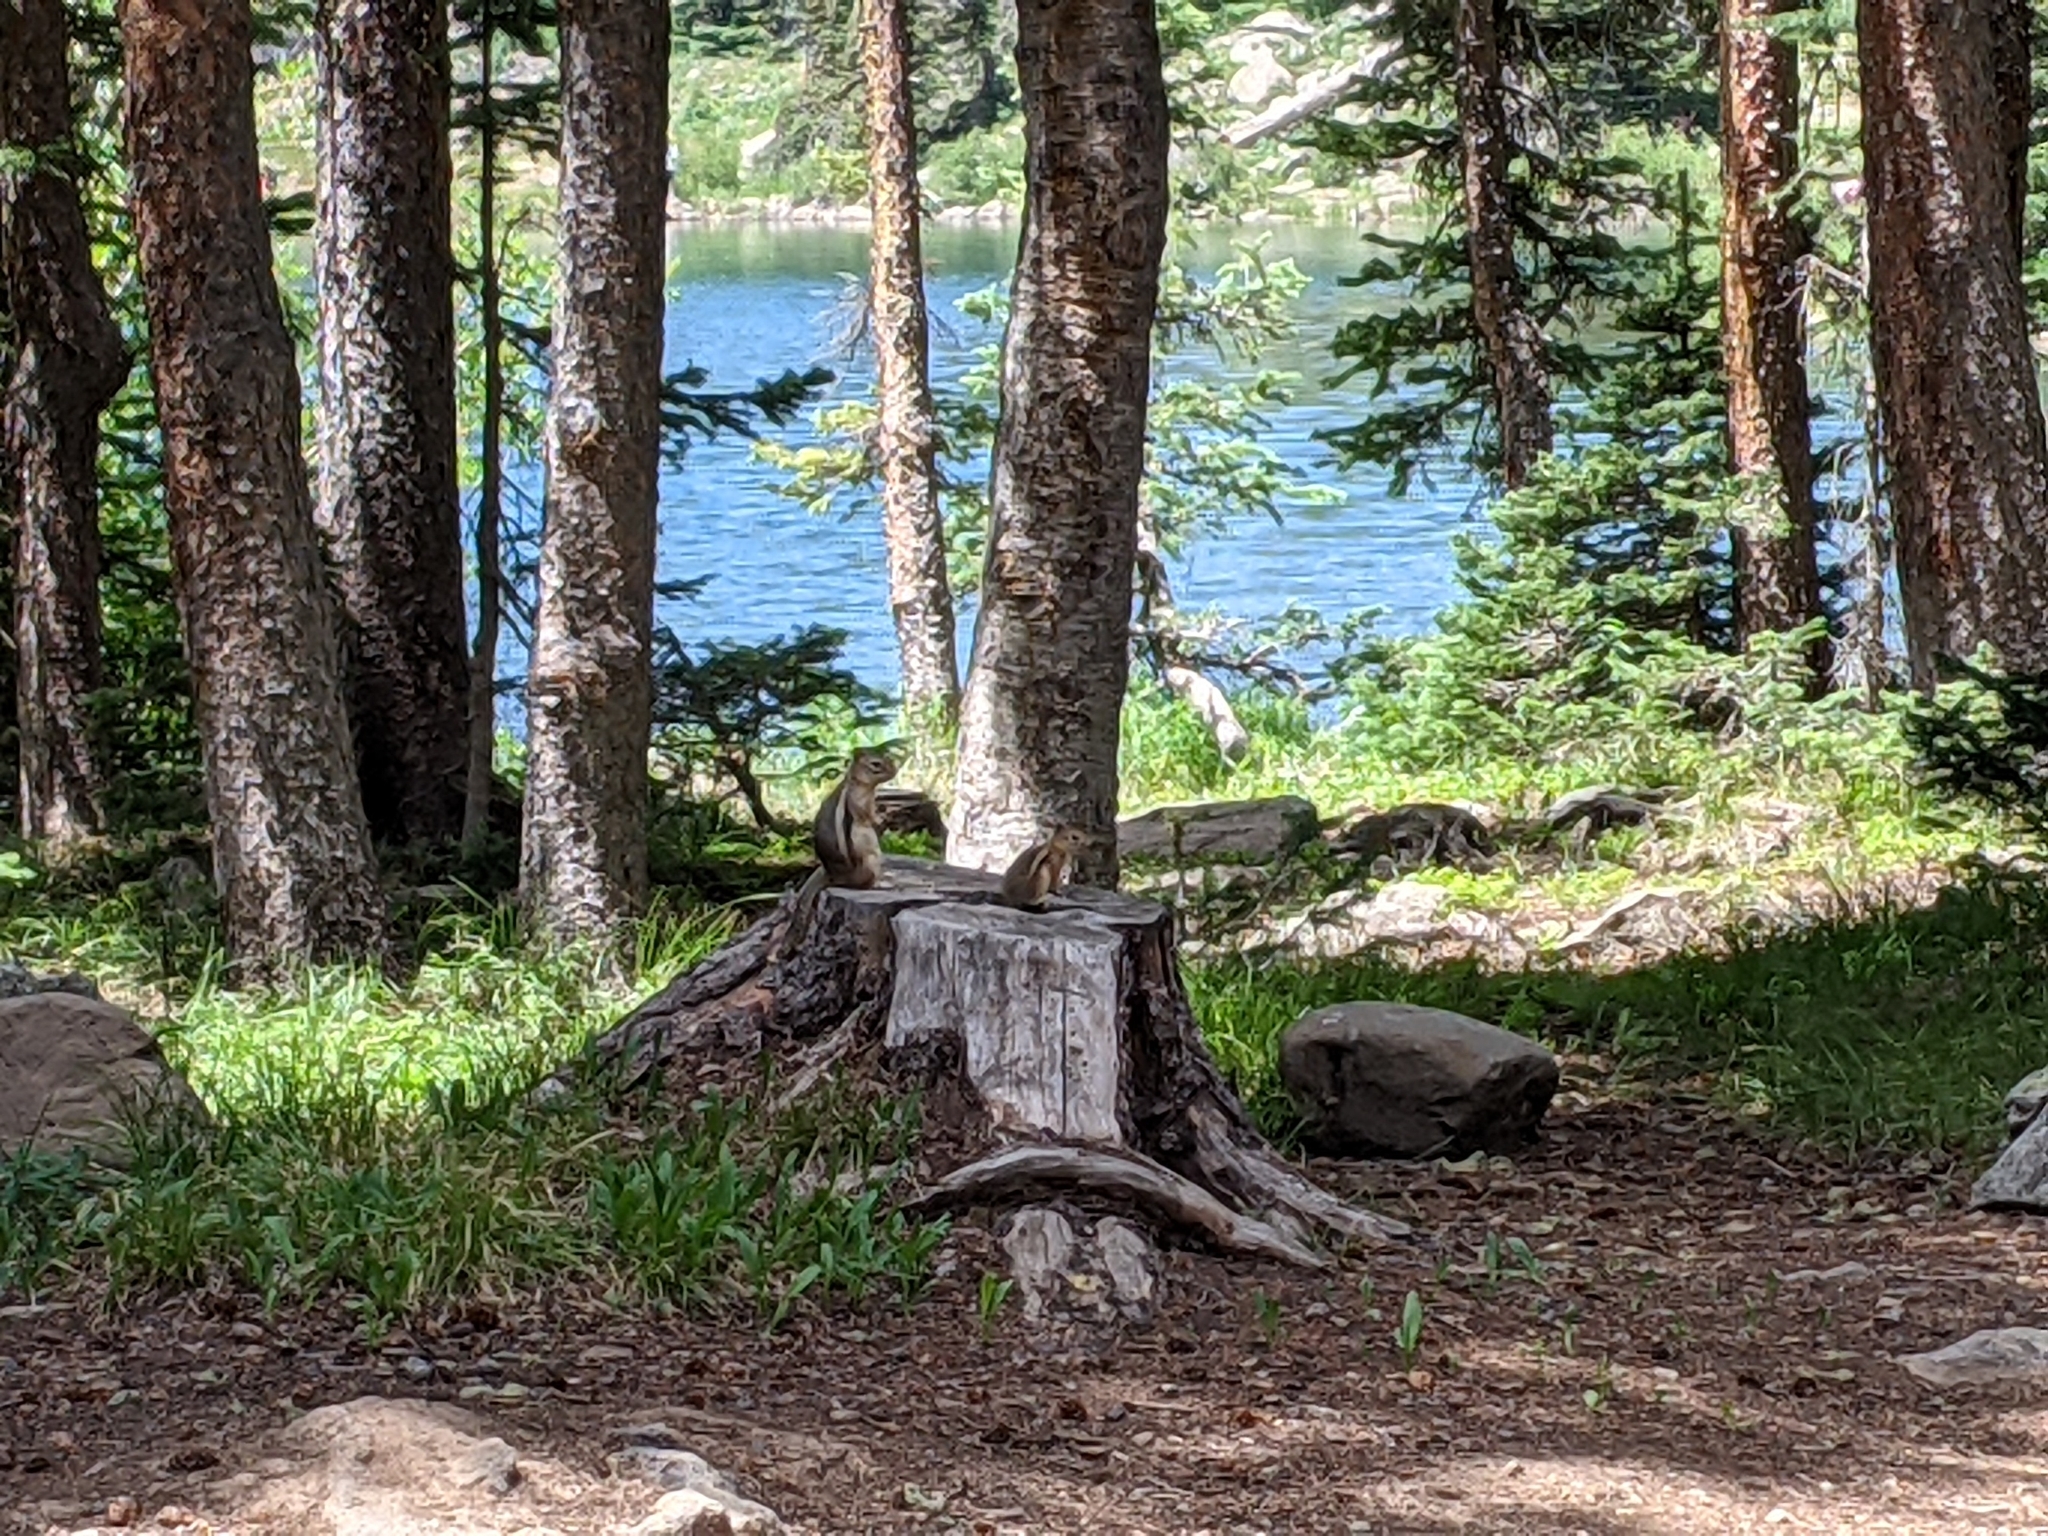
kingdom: Animalia
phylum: Chordata
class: Mammalia
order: Rodentia
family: Sciuridae
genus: Callospermophilus
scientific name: Callospermophilus lateralis
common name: Golden-mantled ground squirrel
